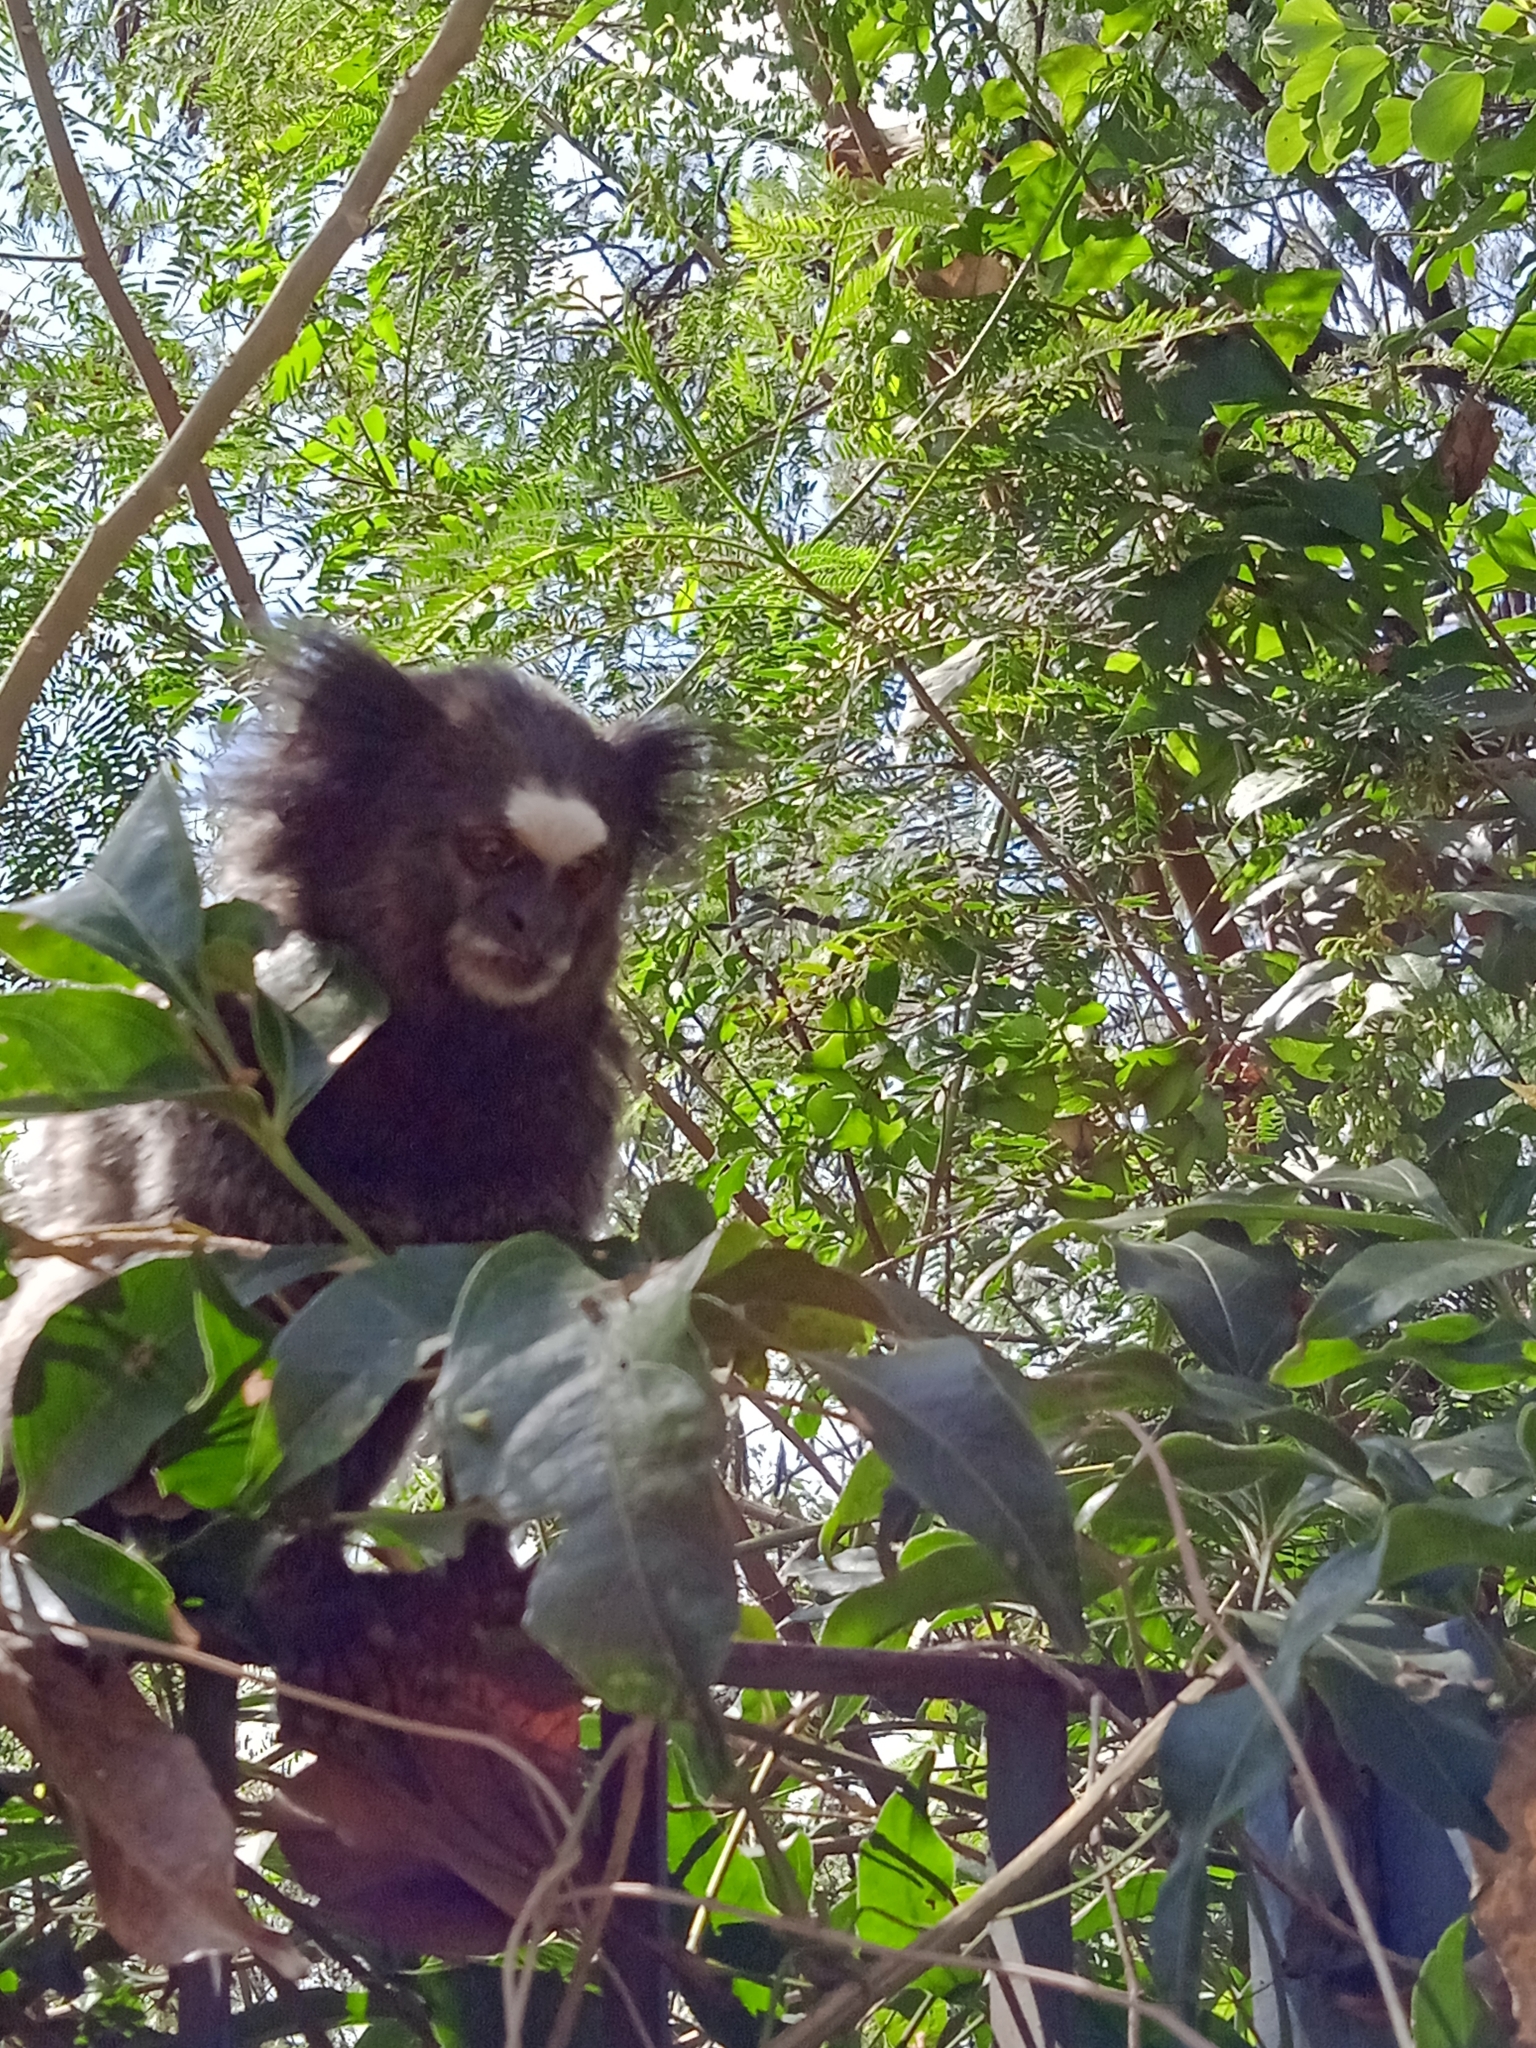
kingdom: Animalia
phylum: Chordata
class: Mammalia
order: Primates
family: Callitrichidae
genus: Callithrix
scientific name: Callithrix penicillata
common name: Black-tufted marmoset
